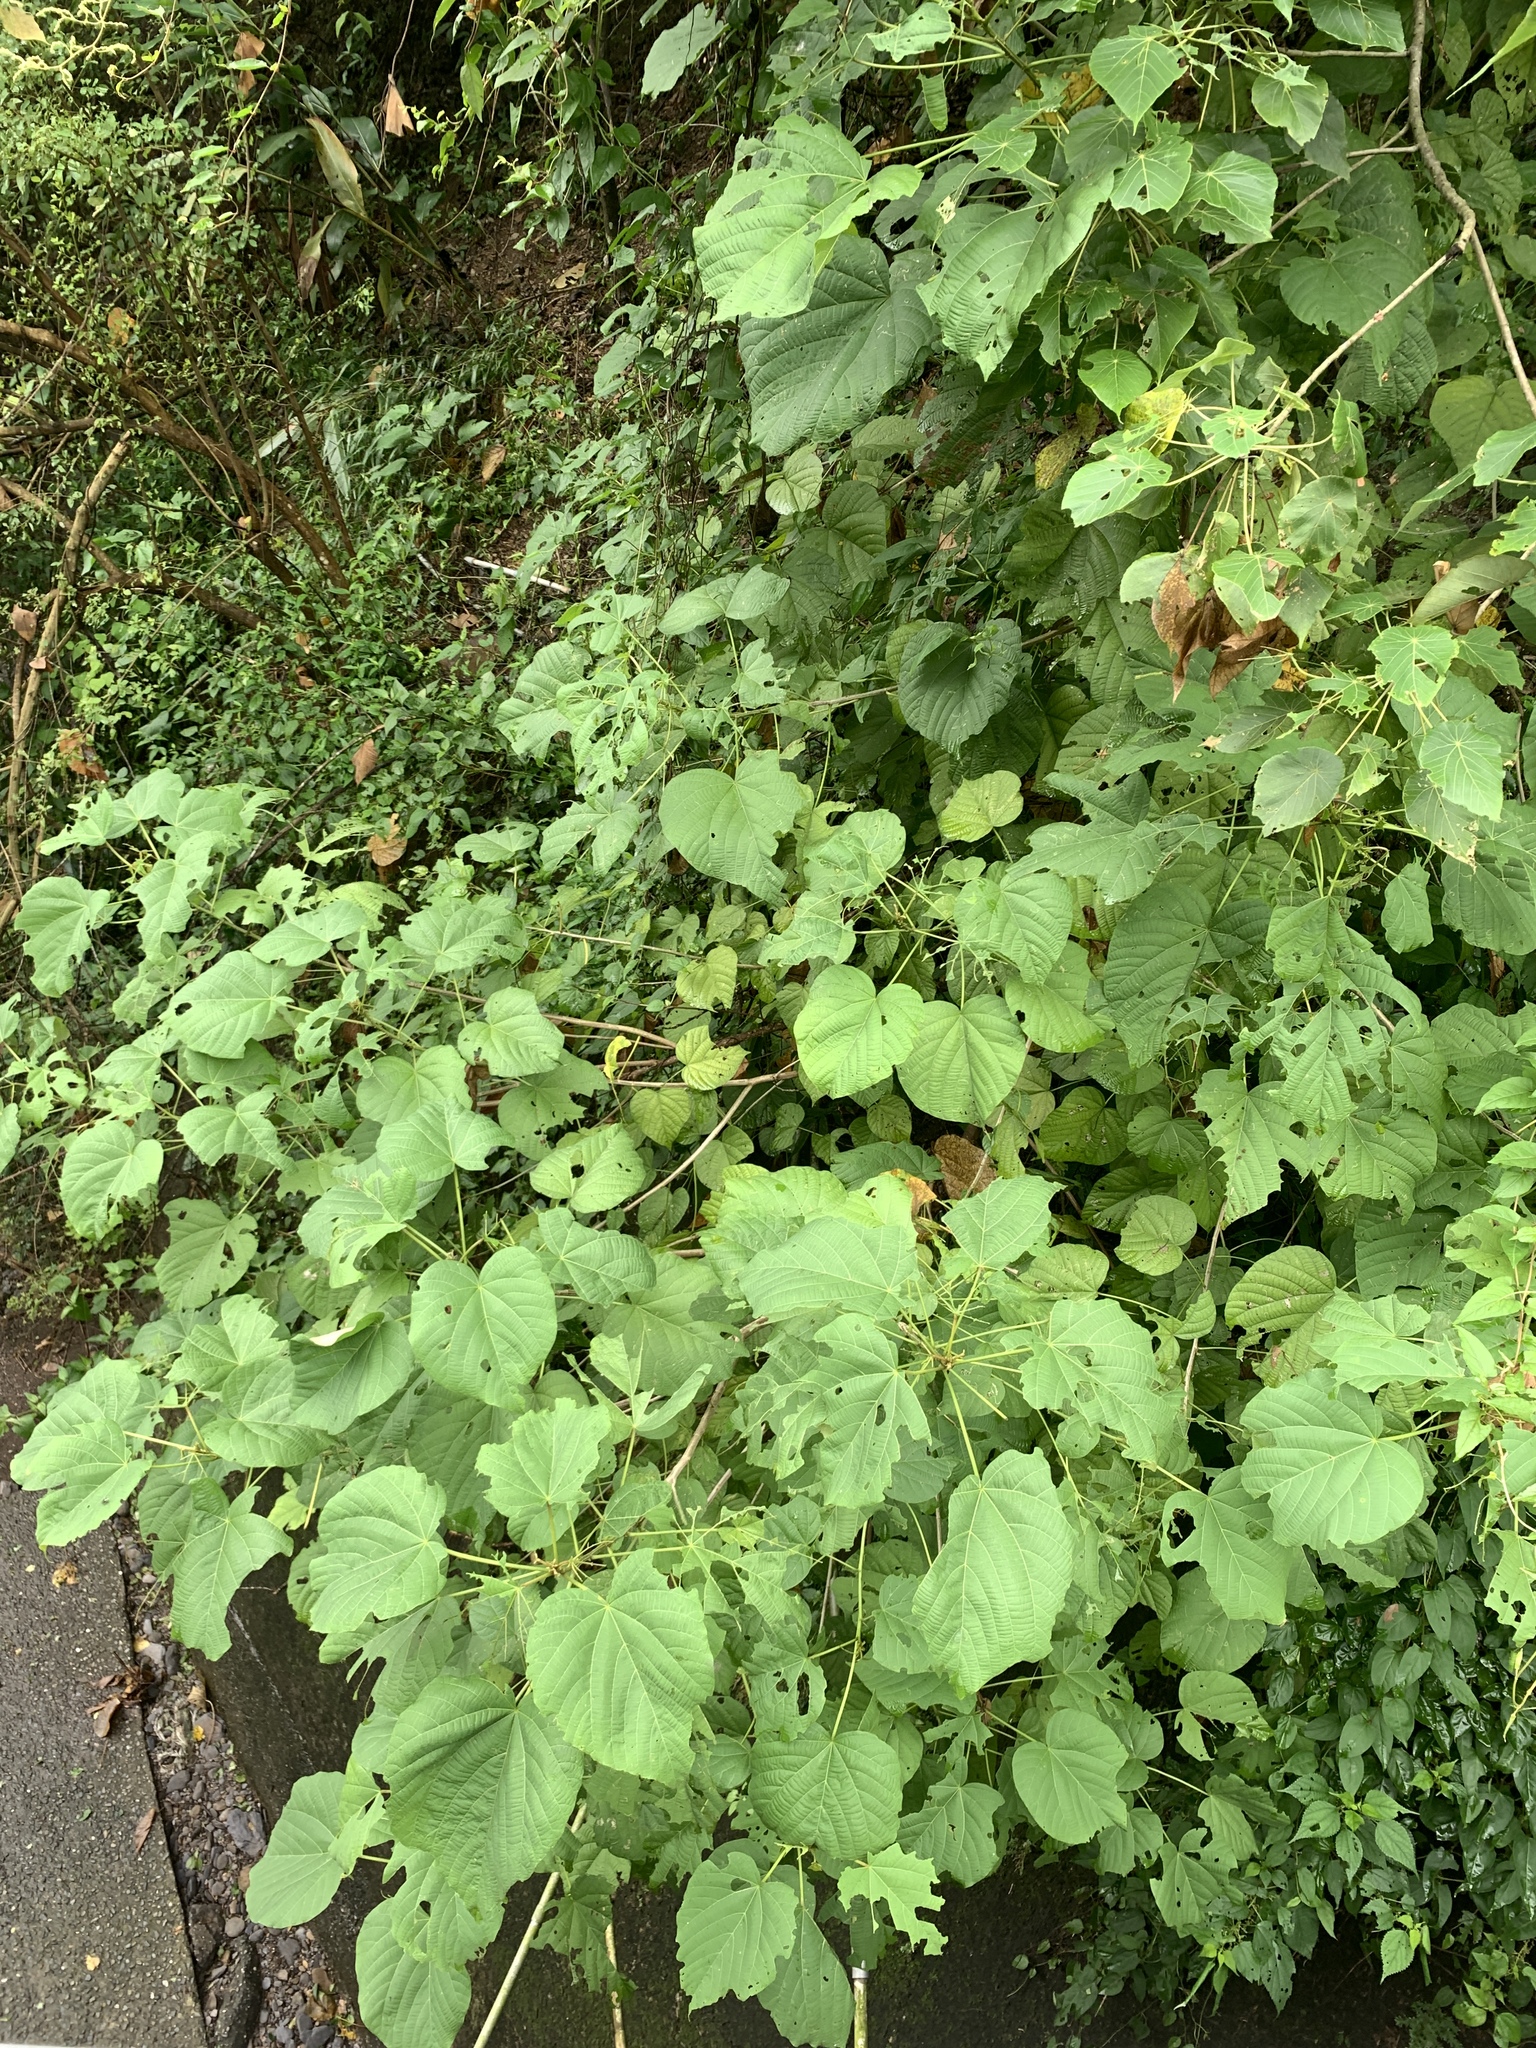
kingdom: Plantae
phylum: Tracheophyta
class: Magnoliopsida
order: Malvales
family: Malvaceae
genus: Kleinhovia
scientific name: Kleinhovia hospita
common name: Guest-tree
